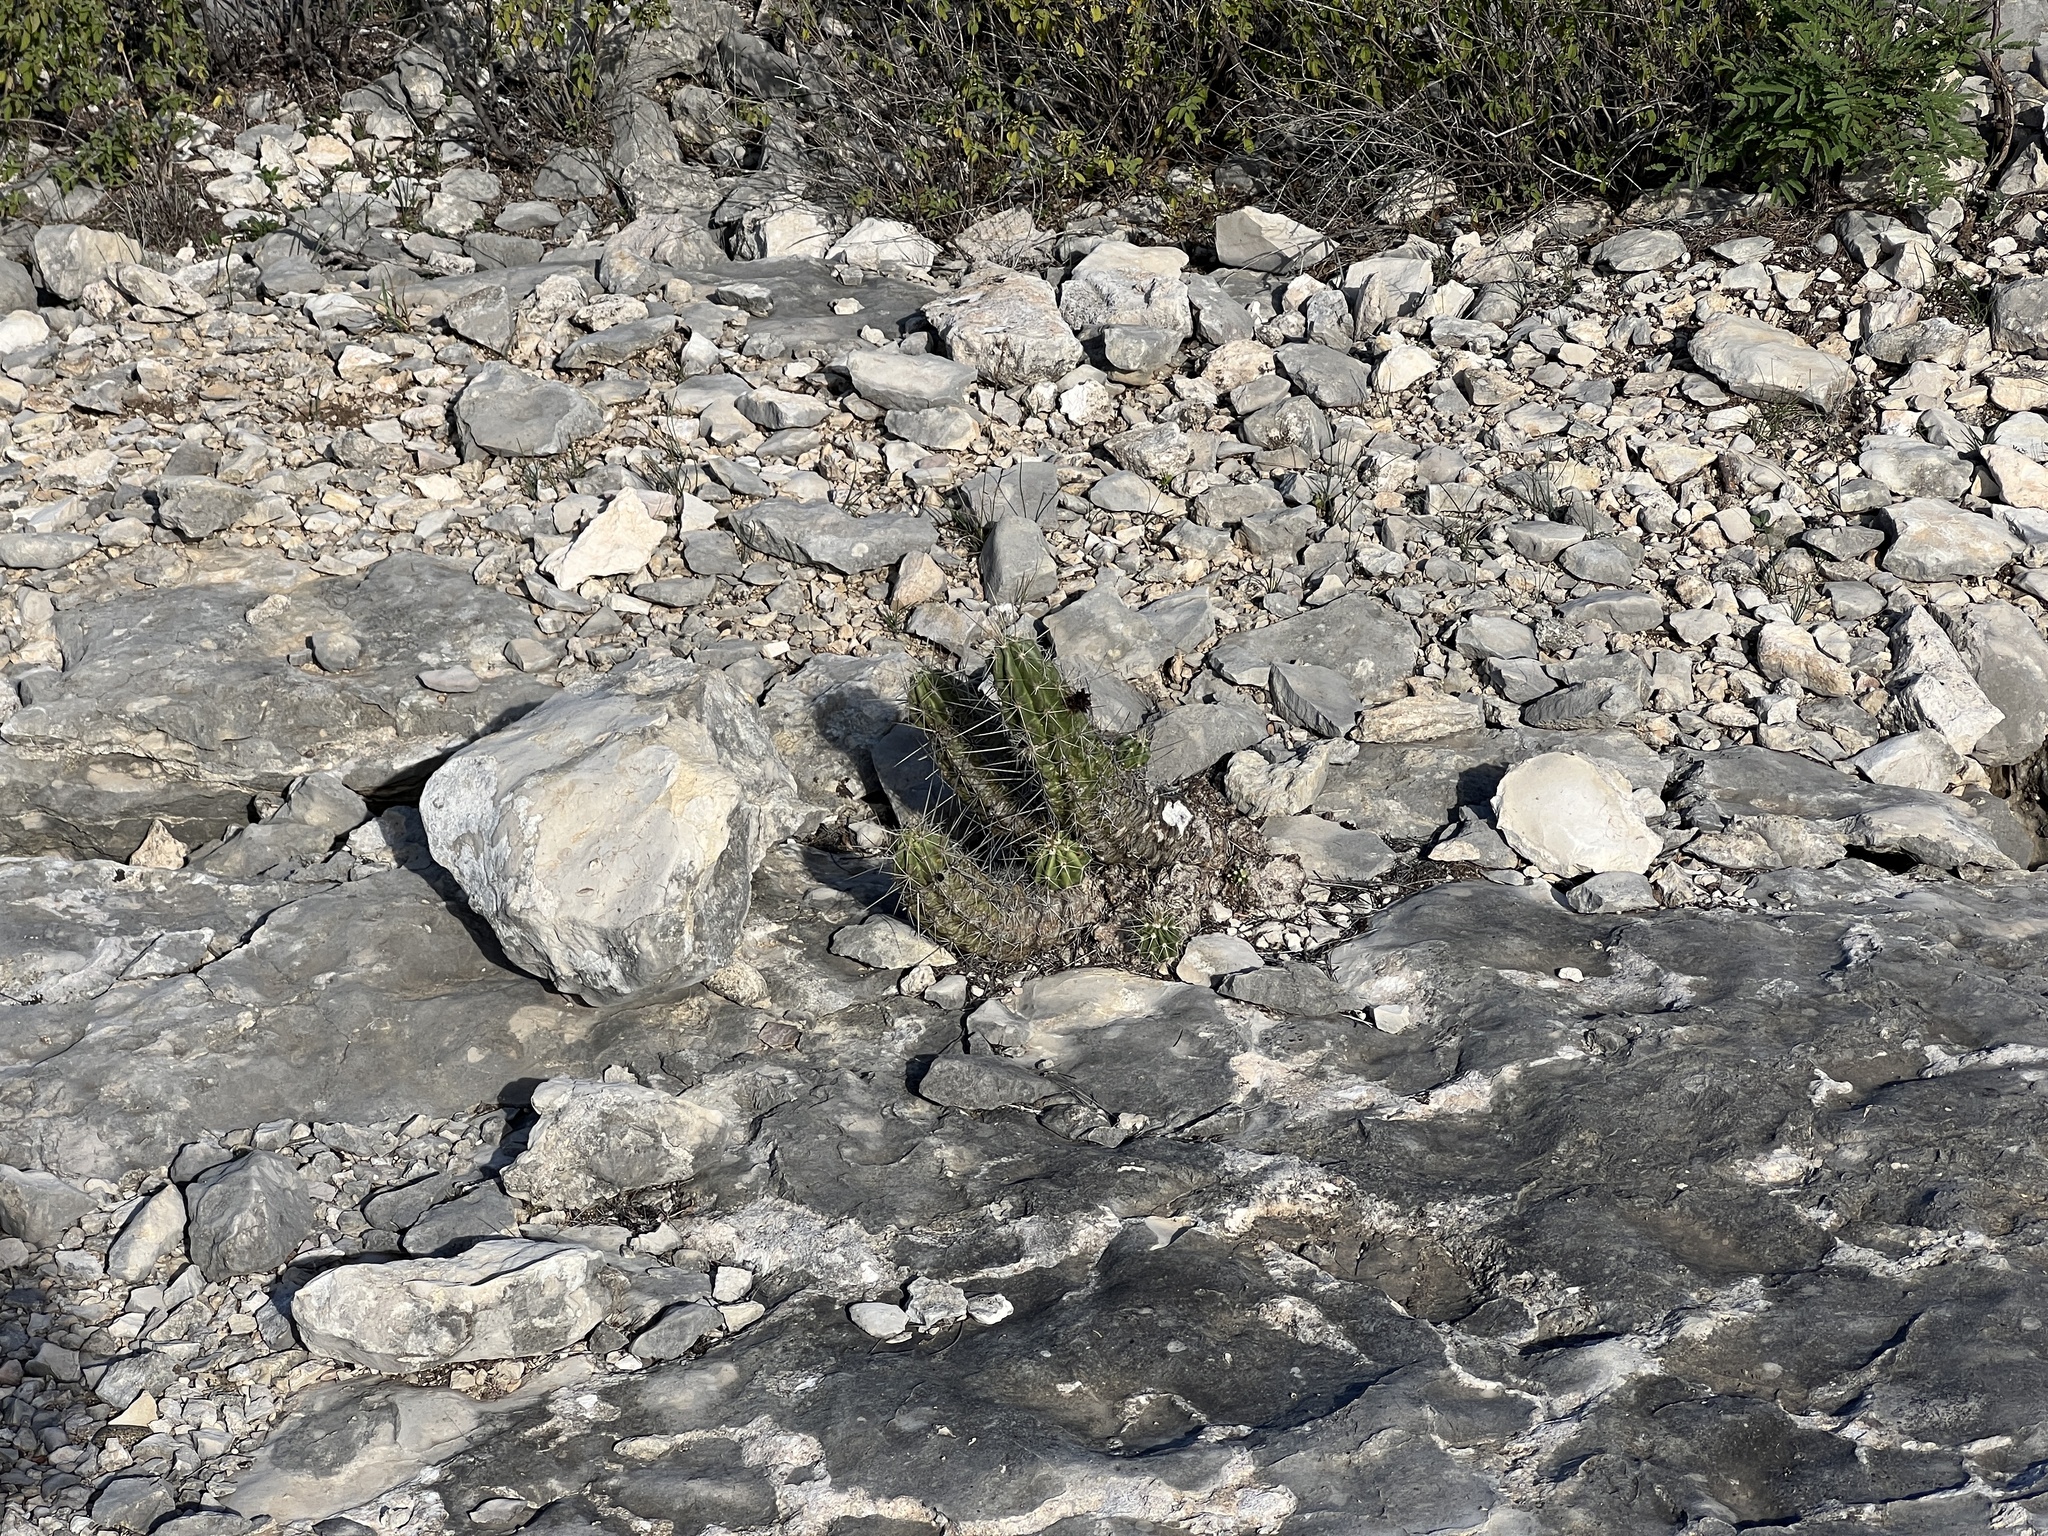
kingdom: Plantae
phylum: Tracheophyta
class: Magnoliopsida
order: Caryophyllales
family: Cactaceae
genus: Echinocereus
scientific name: Echinocereus enneacanthus
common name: Pitaya
